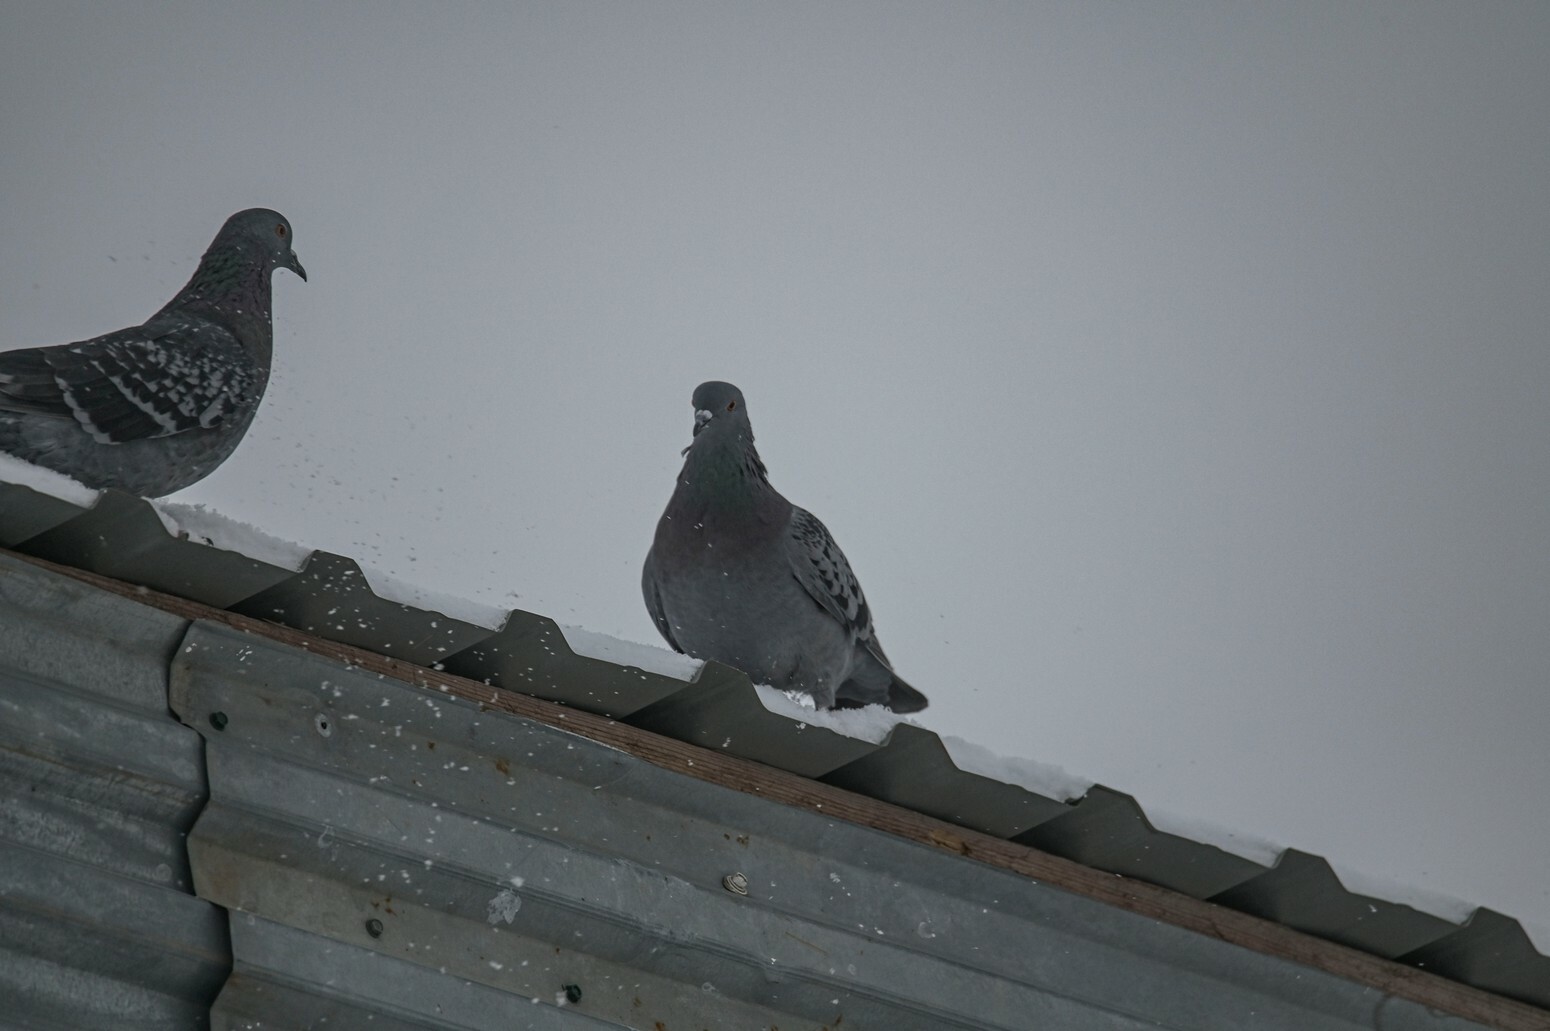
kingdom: Animalia
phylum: Chordata
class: Aves
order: Columbiformes
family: Columbidae
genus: Columba
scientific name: Columba livia
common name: Rock pigeon
